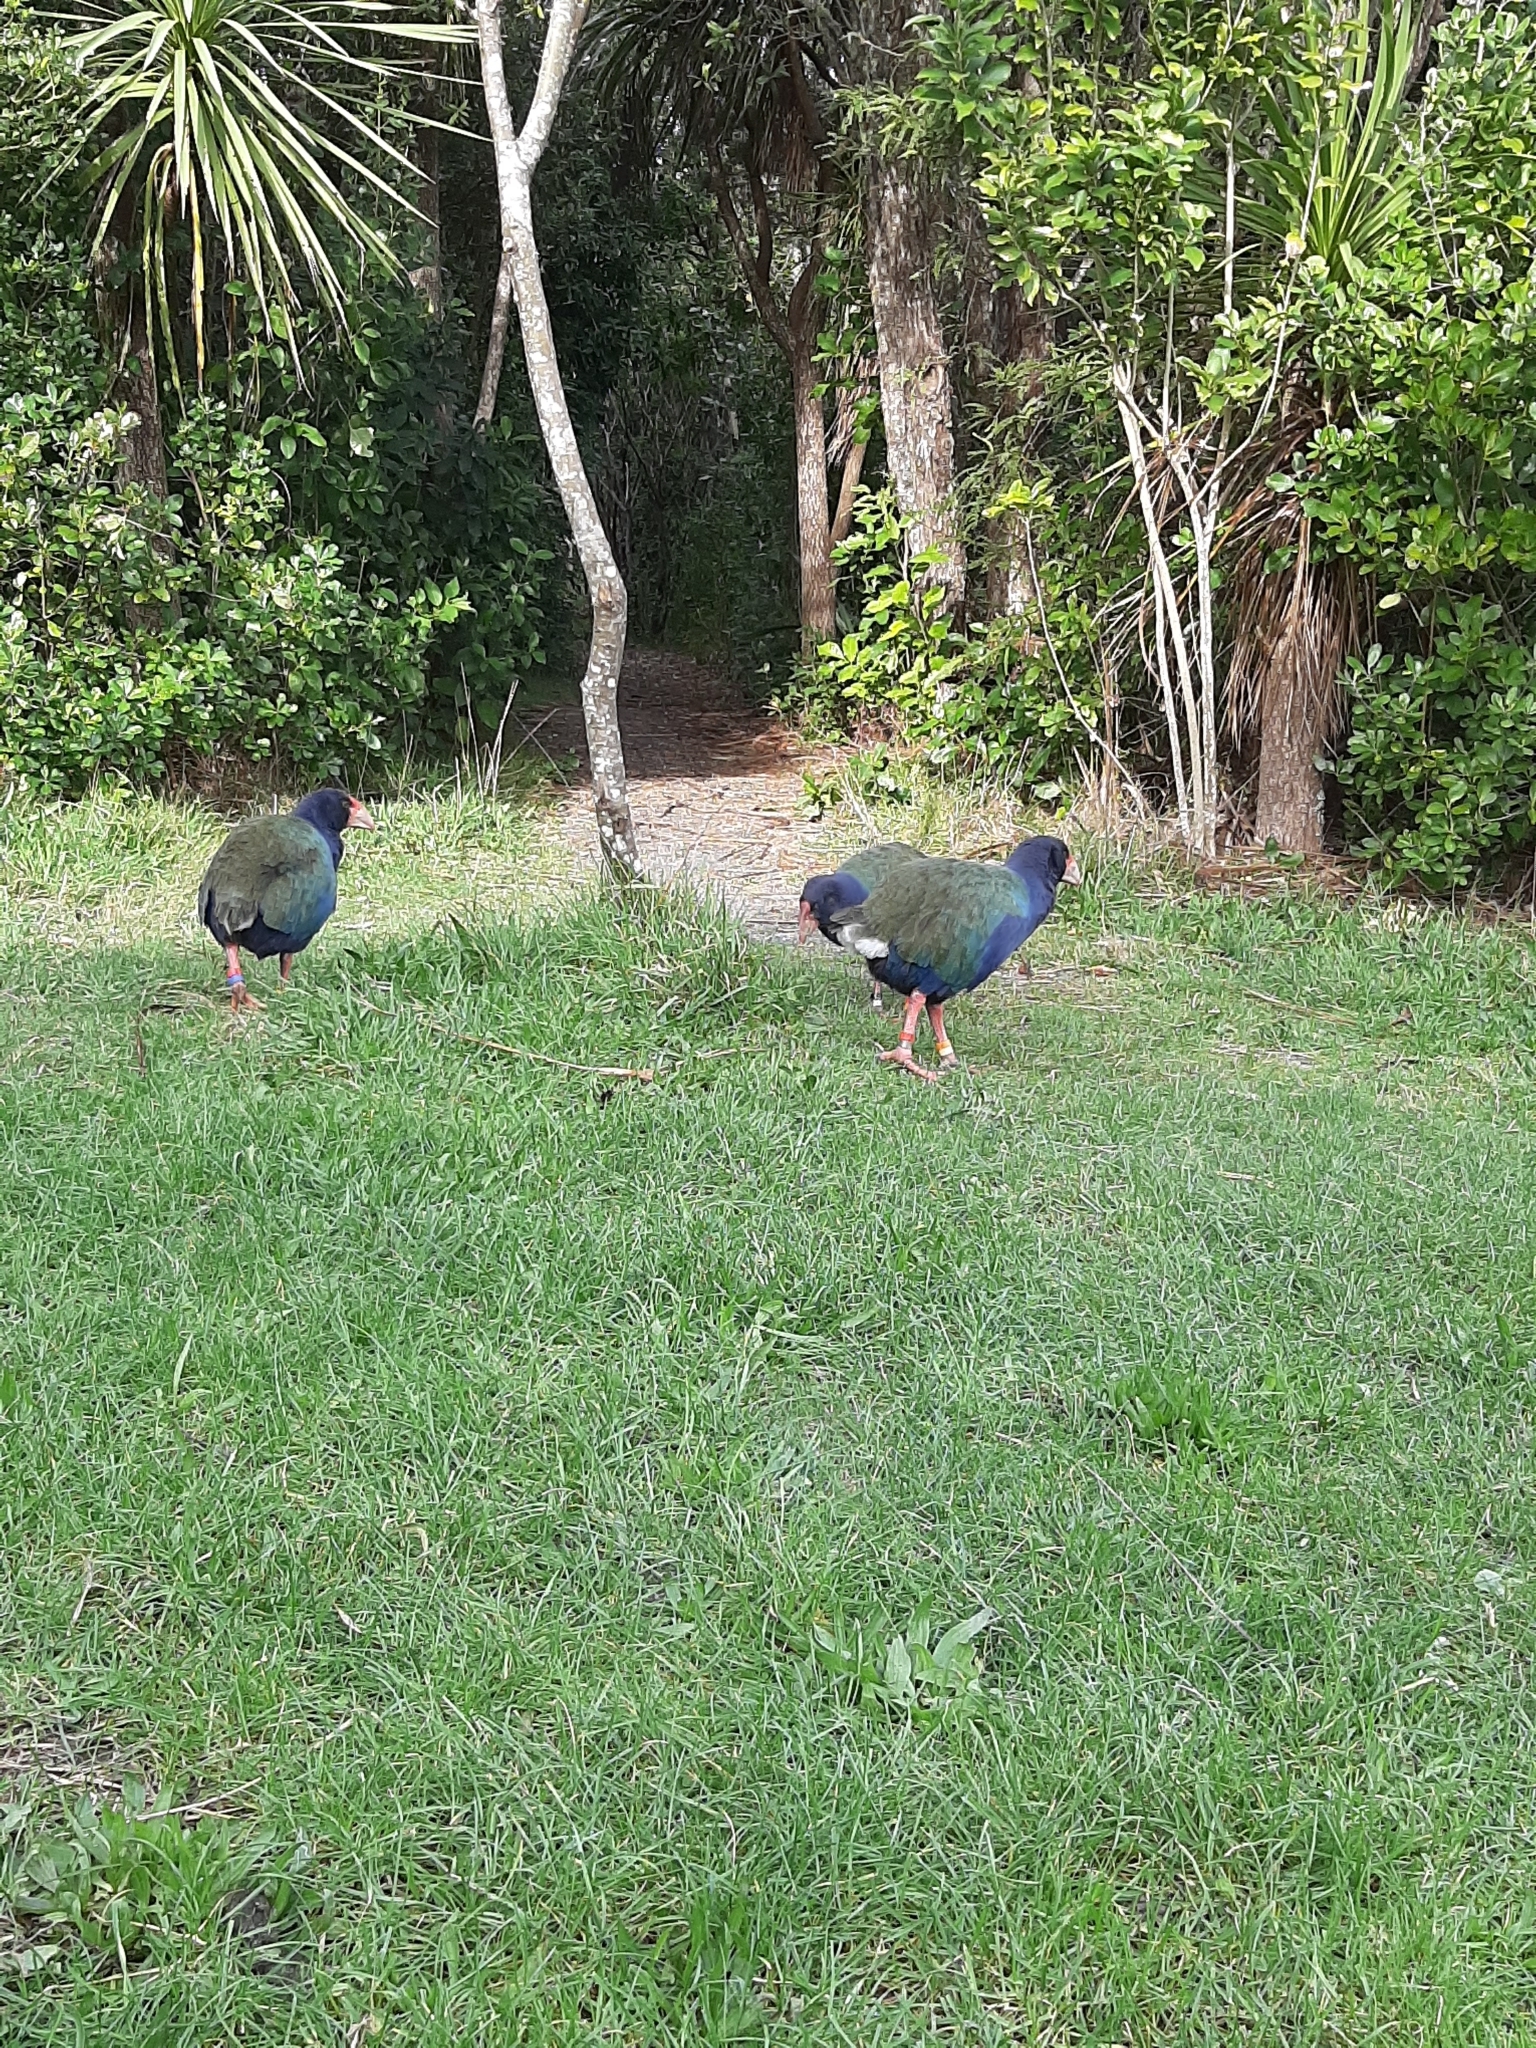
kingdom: Animalia
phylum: Chordata
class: Aves
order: Gruiformes
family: Rallidae
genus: Porphyrio
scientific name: Porphyrio hochstetteri
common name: South island takahe
